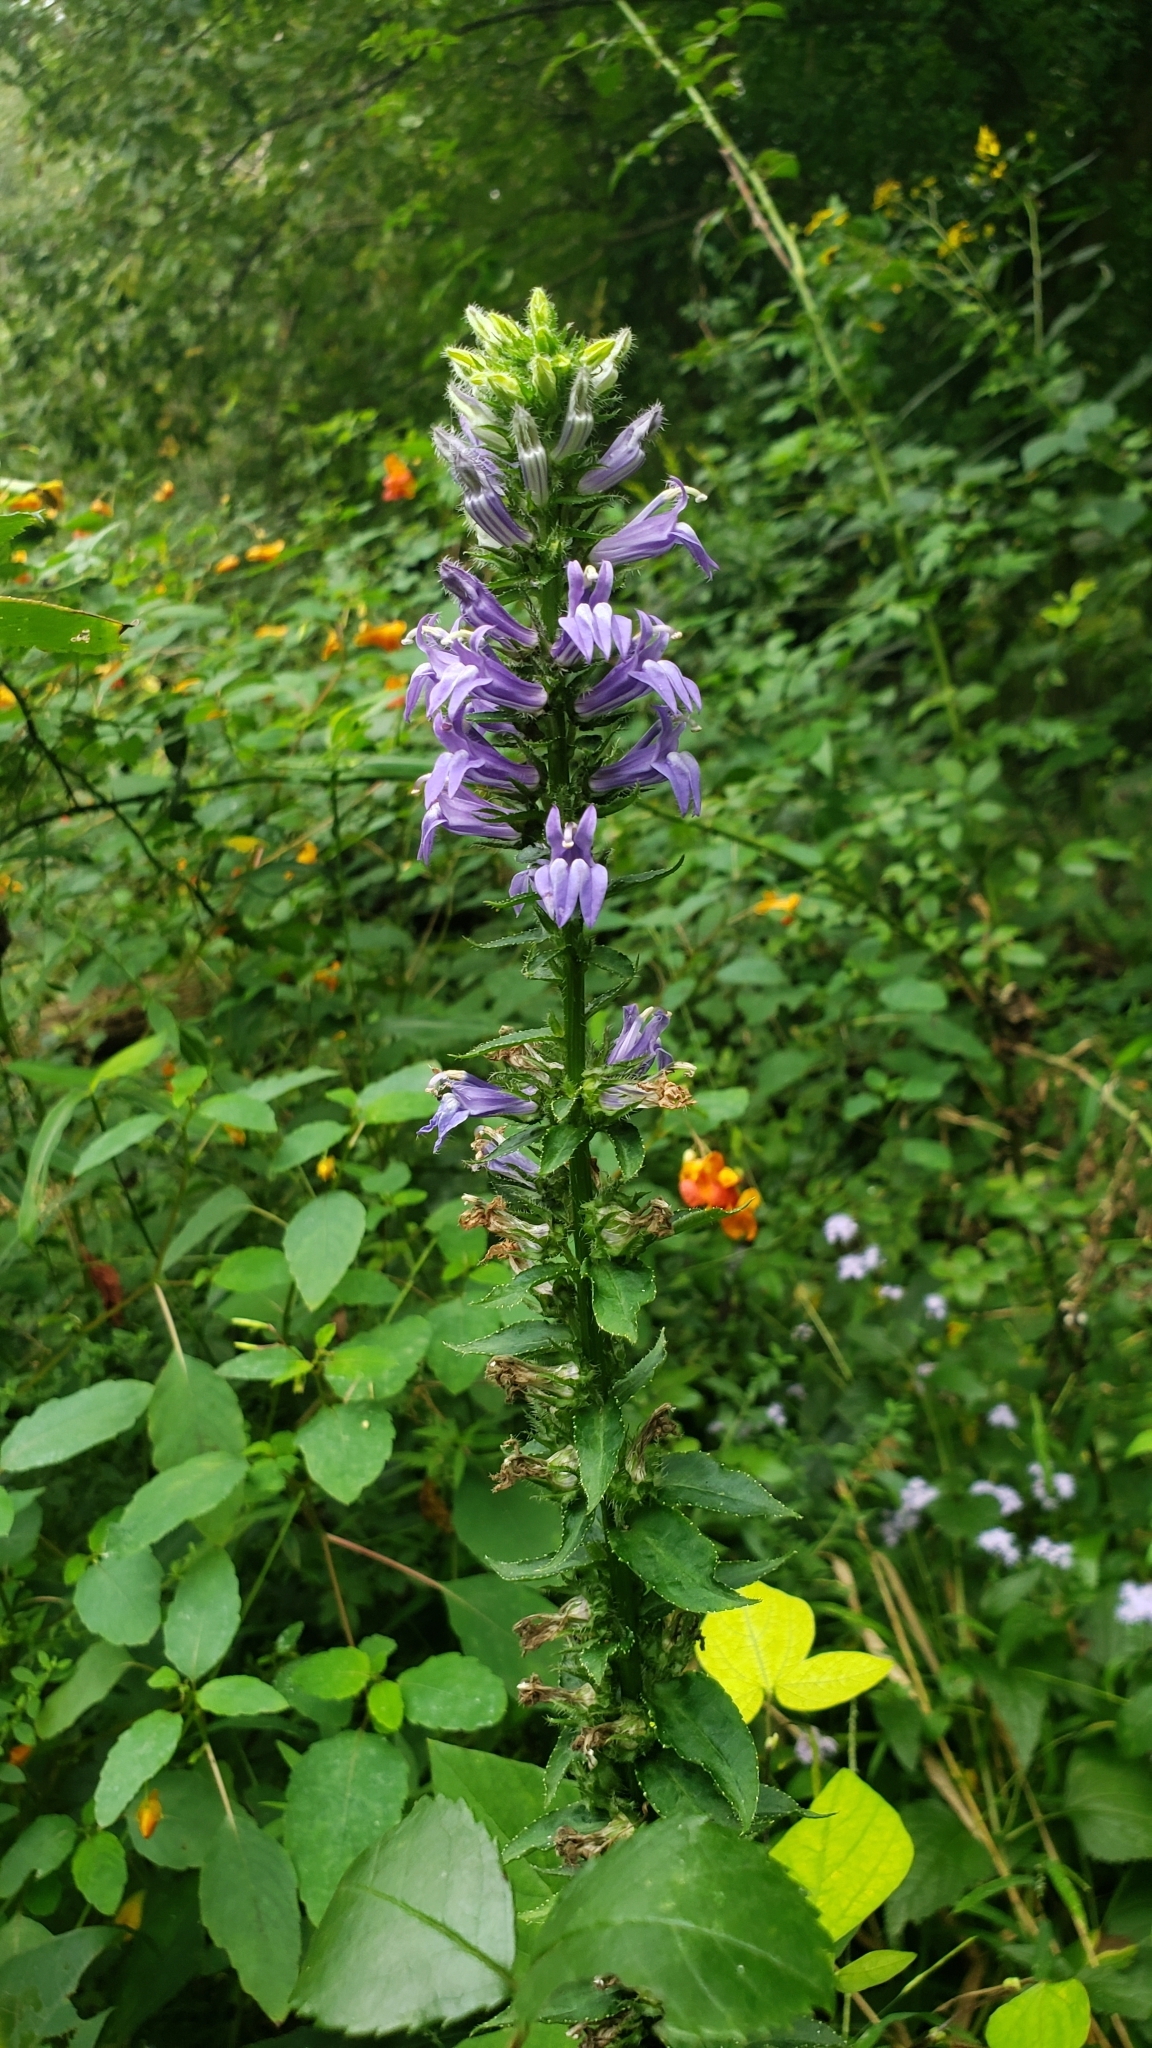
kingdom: Plantae
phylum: Tracheophyta
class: Magnoliopsida
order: Asterales
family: Campanulaceae
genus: Lobelia
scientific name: Lobelia siphilitica
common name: Great lobelia
